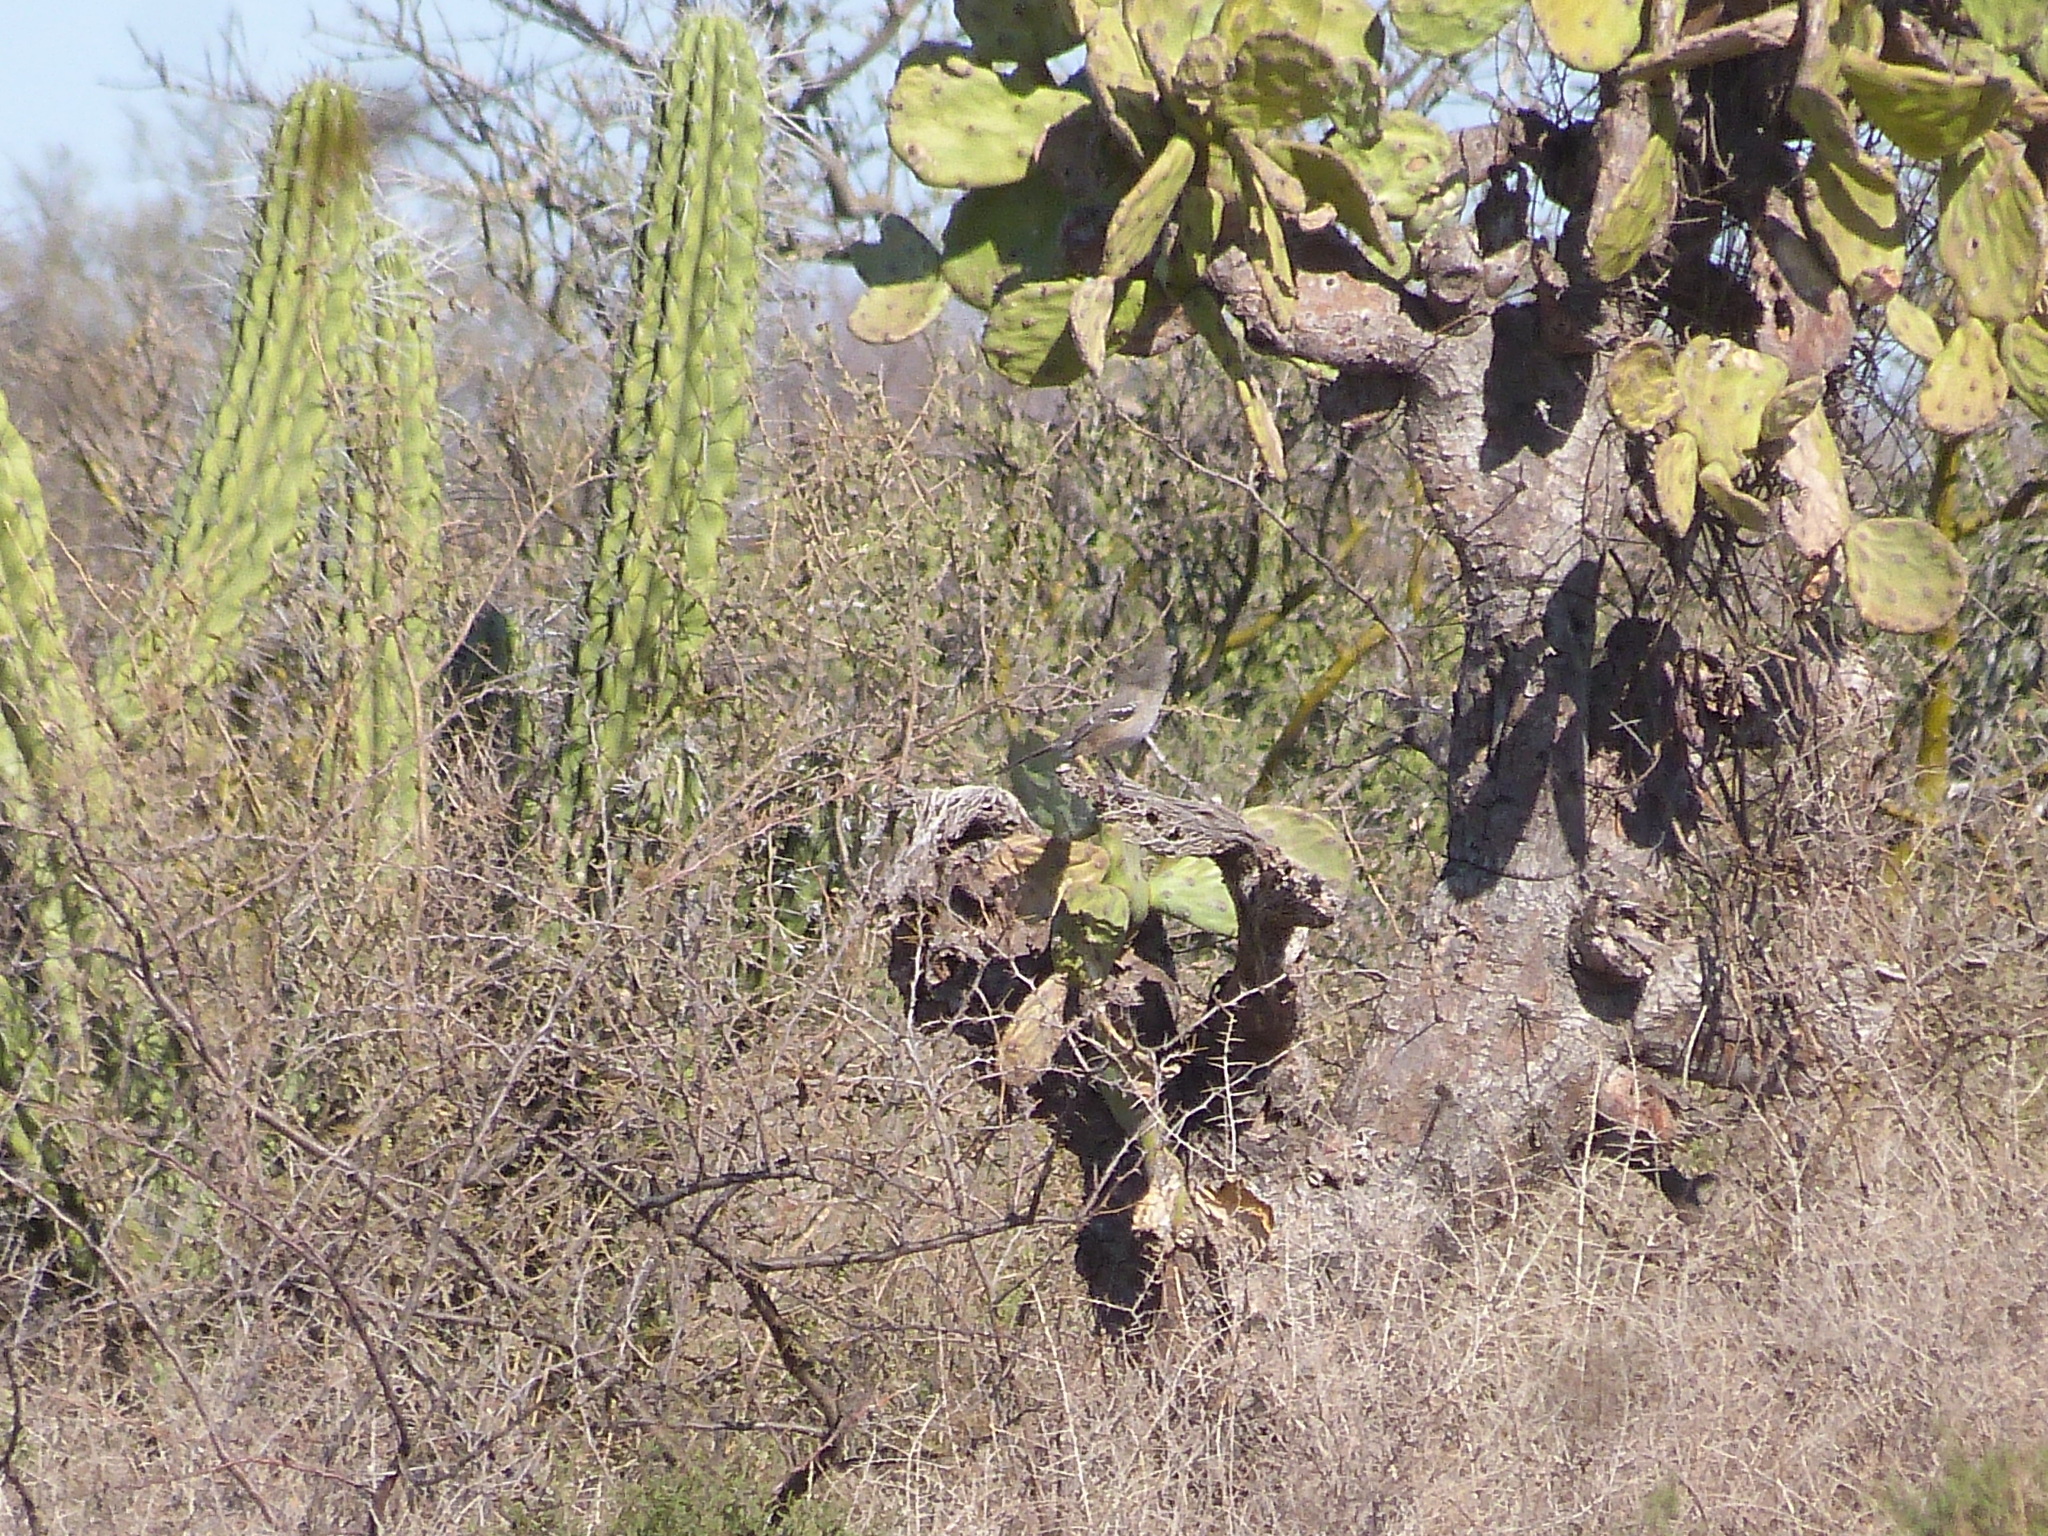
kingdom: Animalia
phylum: Chordata
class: Aves
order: Passeriformes
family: Mimidae
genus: Mimus
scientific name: Mimus saturninus
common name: Chalk-browed mockingbird
